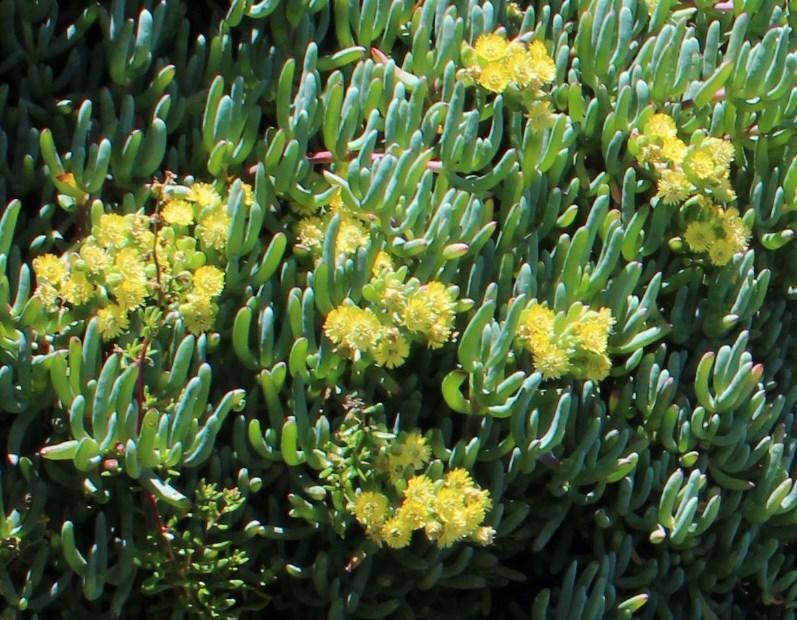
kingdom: Plantae
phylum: Tracheophyta
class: Magnoliopsida
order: Caryophyllales
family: Aizoaceae
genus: Scopelogena
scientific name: Scopelogena verruculata
